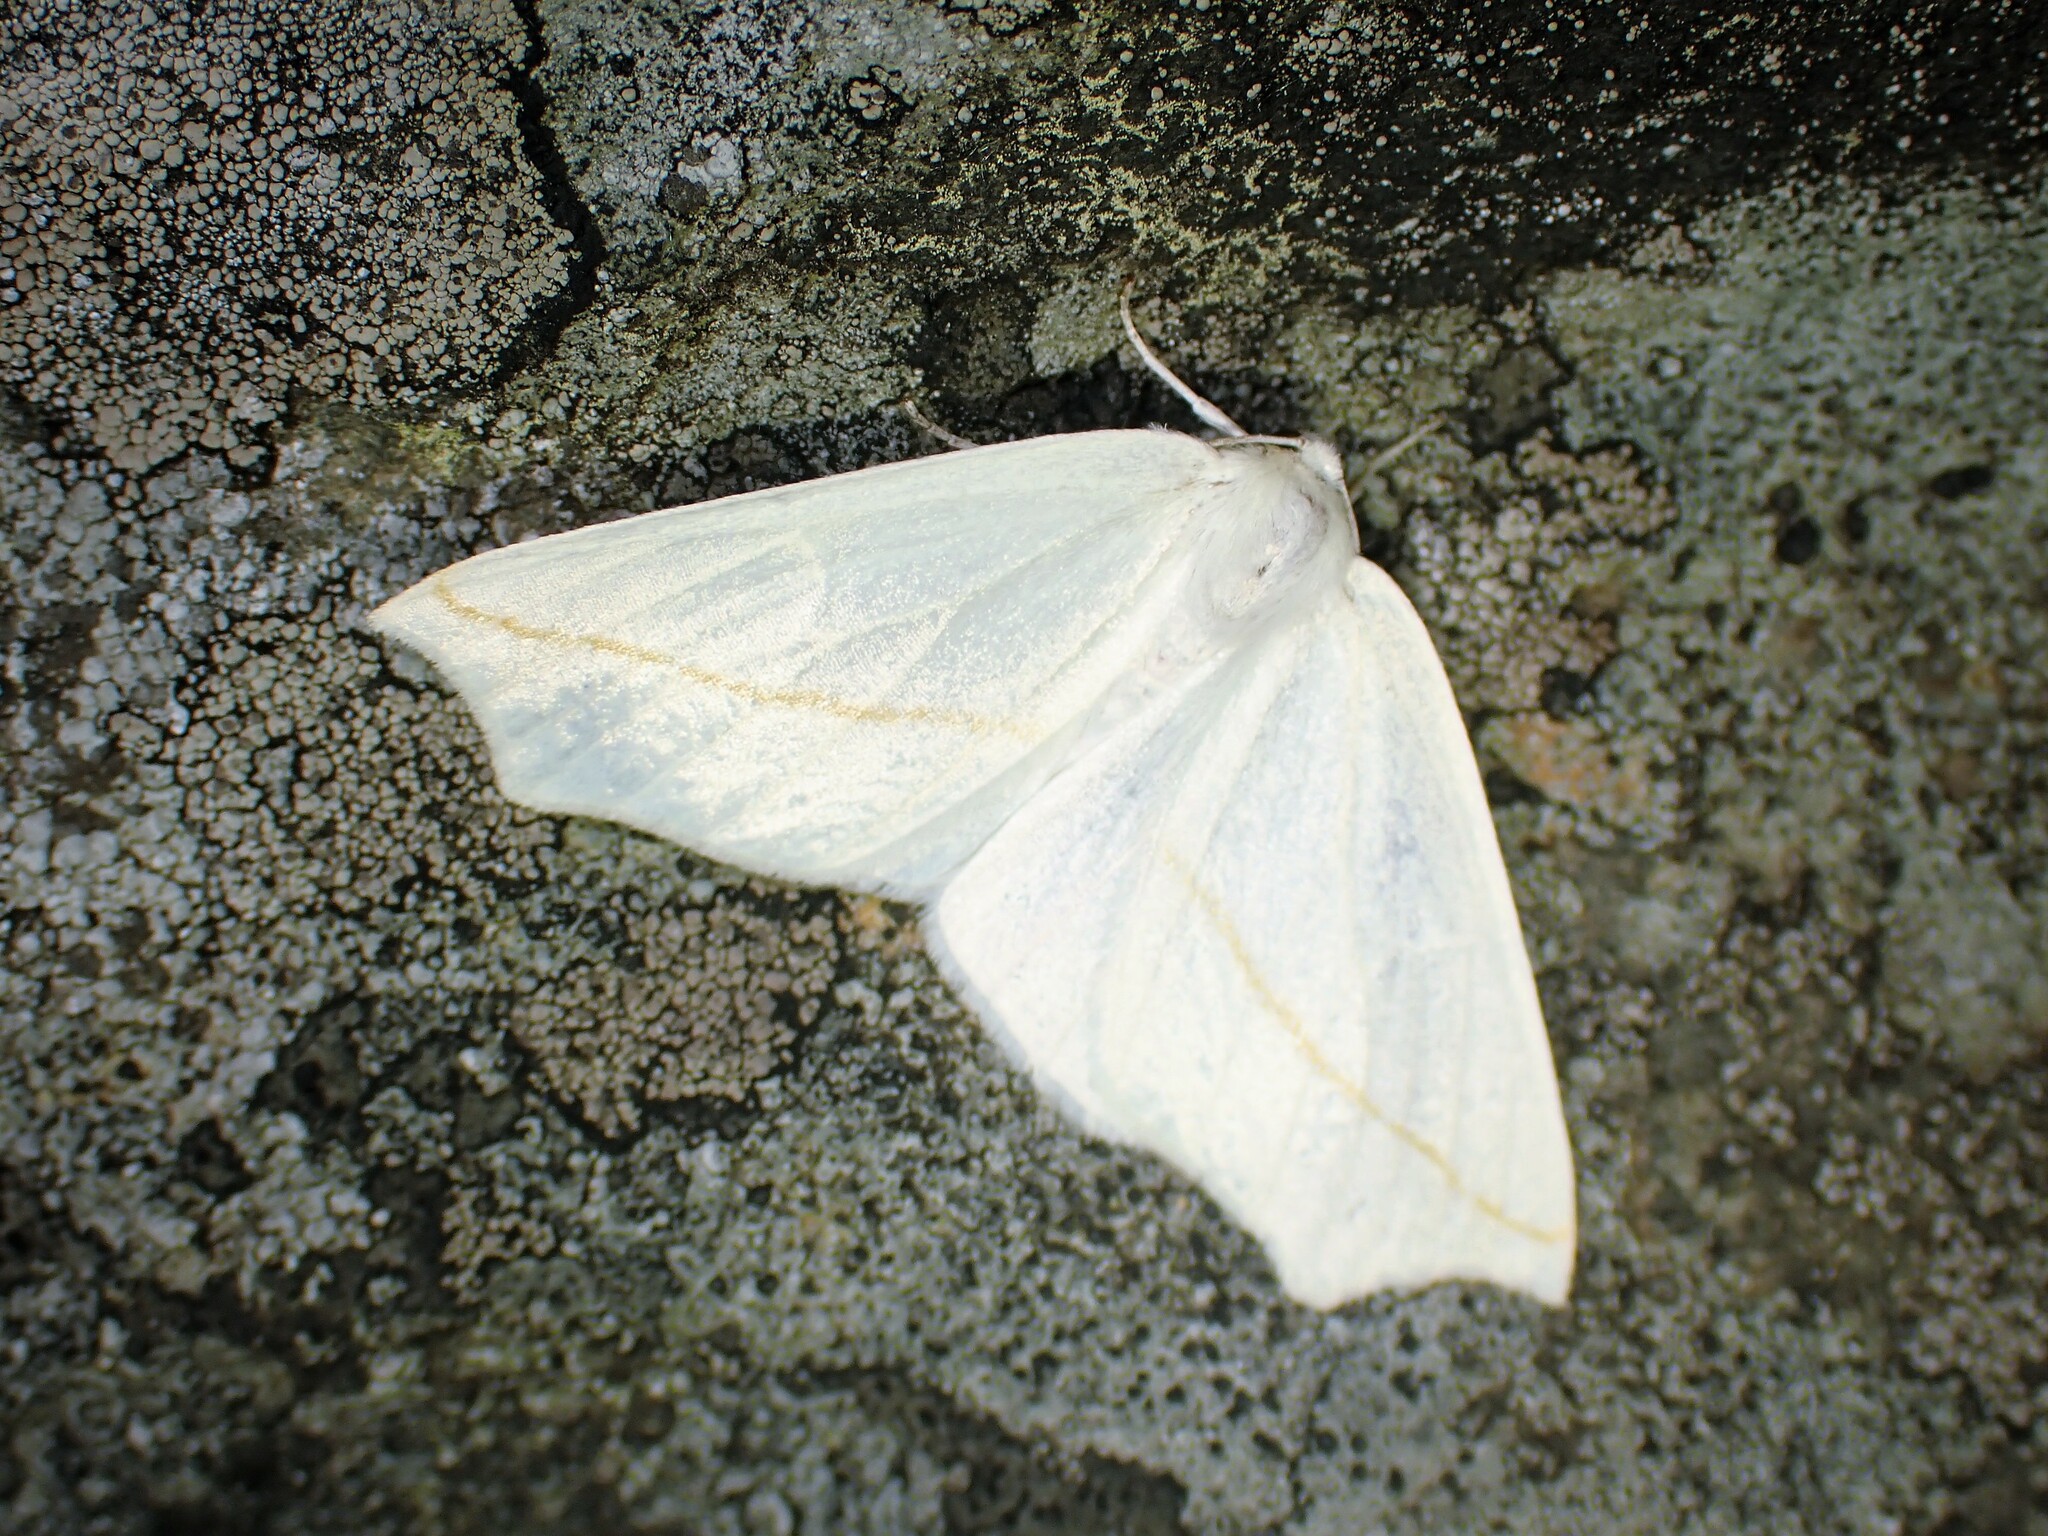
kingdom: Animalia
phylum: Arthropoda
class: Insecta
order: Lepidoptera
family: Geometridae
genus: Tetracis
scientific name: Tetracis cachexiata
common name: White slant-line
